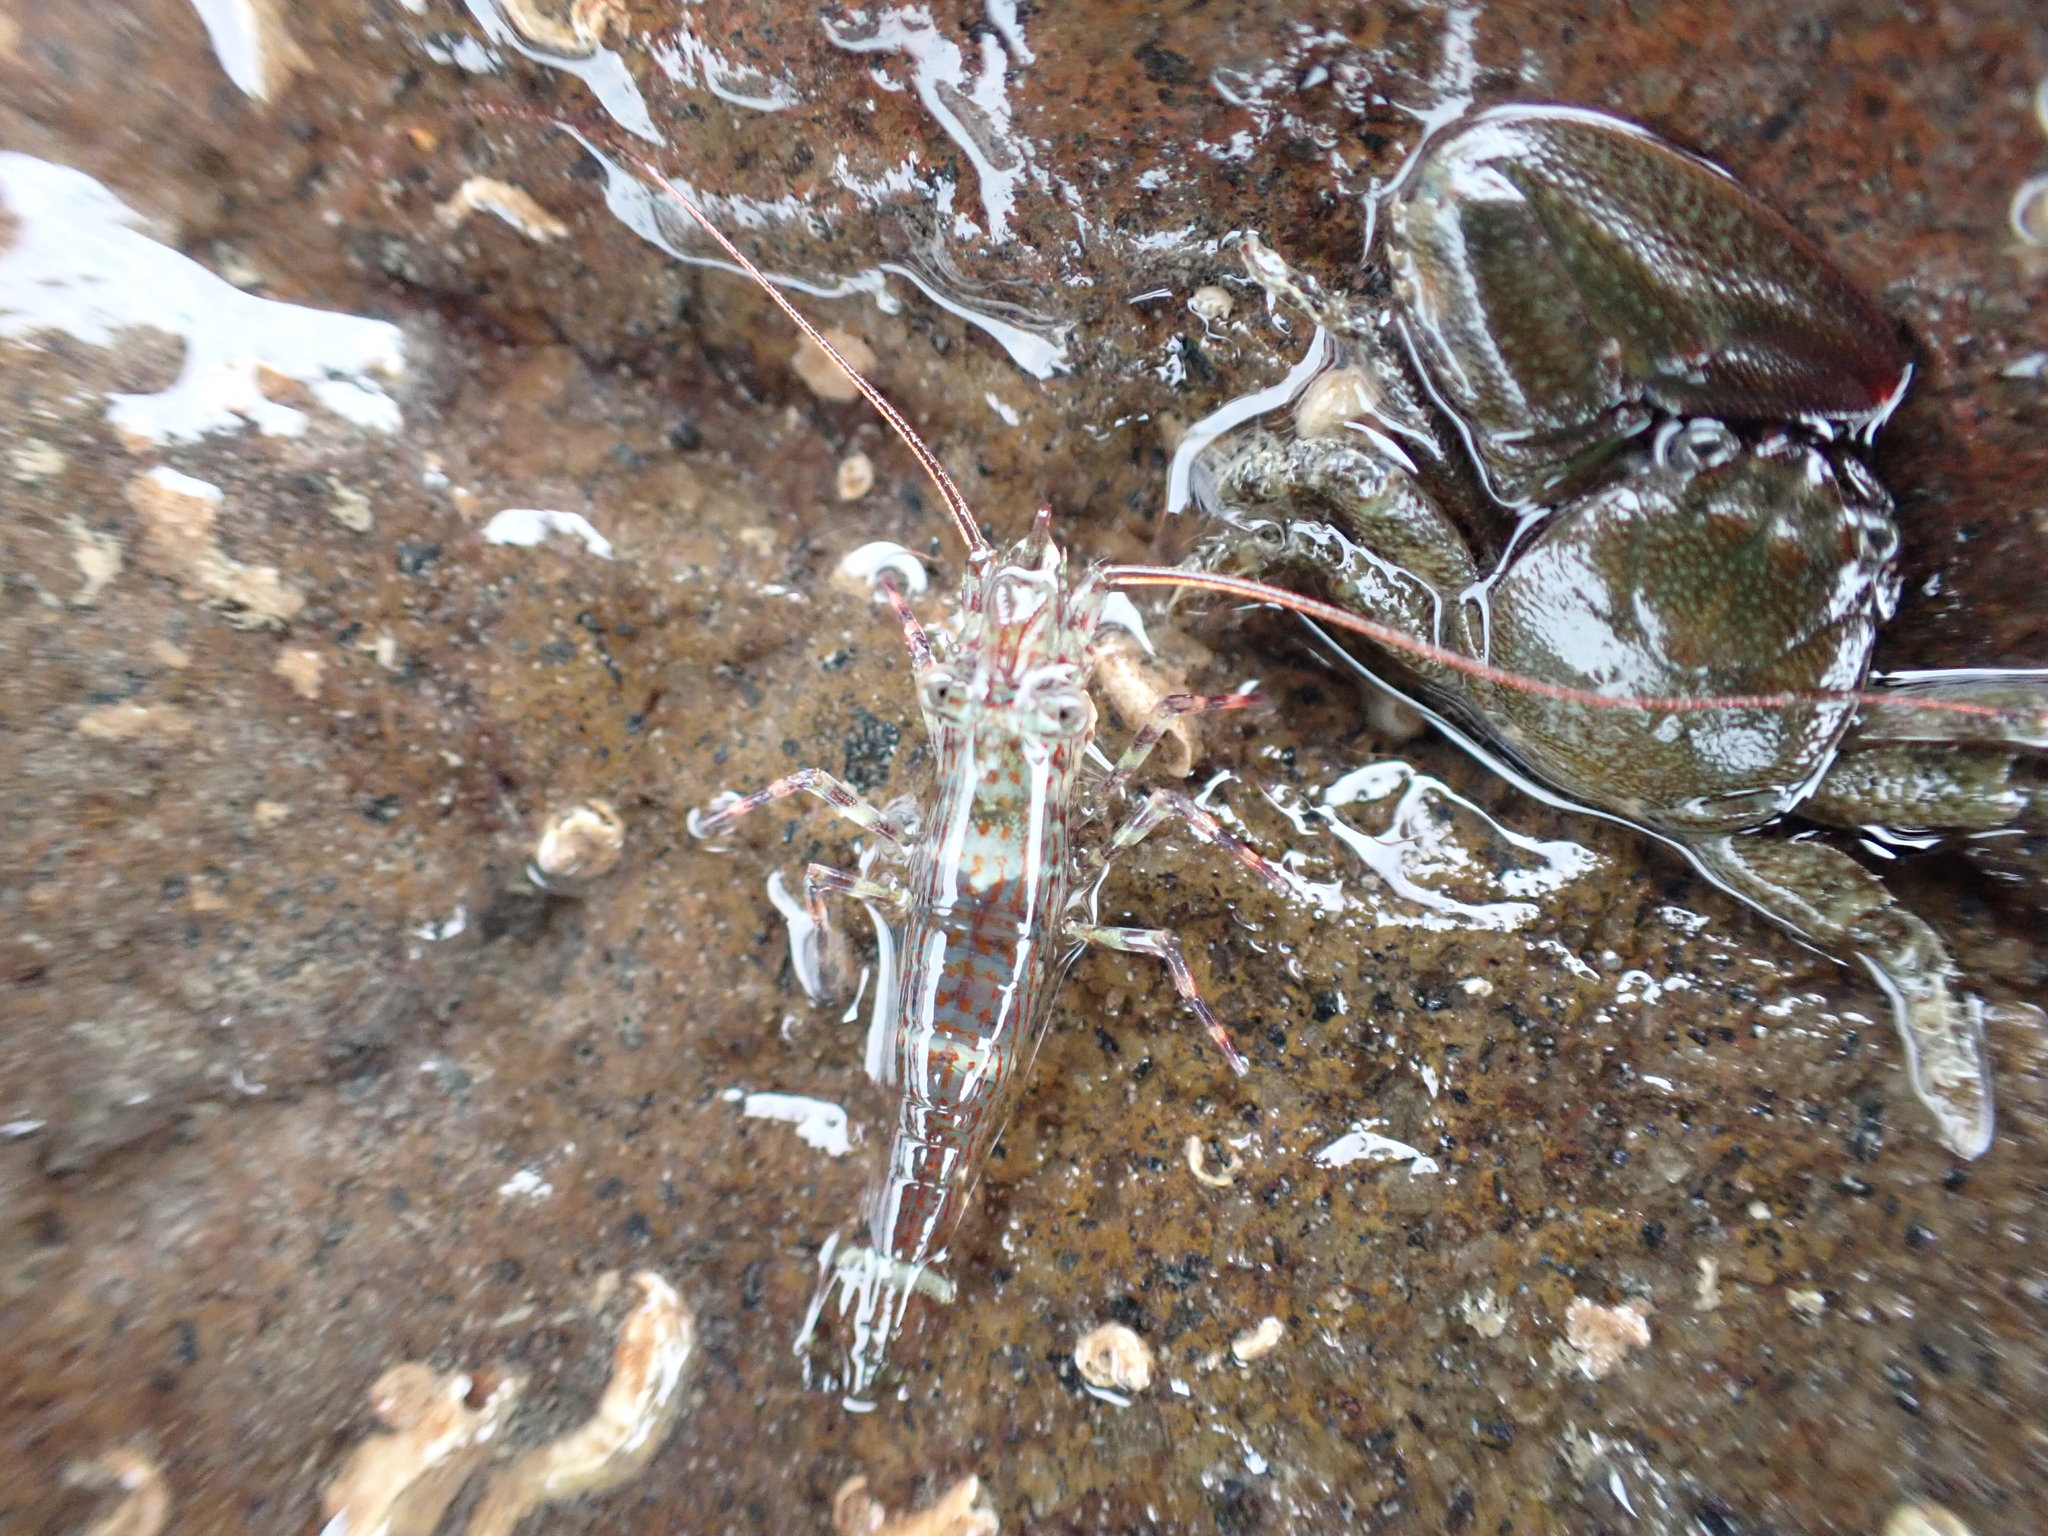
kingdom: Animalia
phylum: Arthropoda
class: Malacostraca
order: Decapoda
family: Hippolytidae
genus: Alope
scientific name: Alope spinifrons
